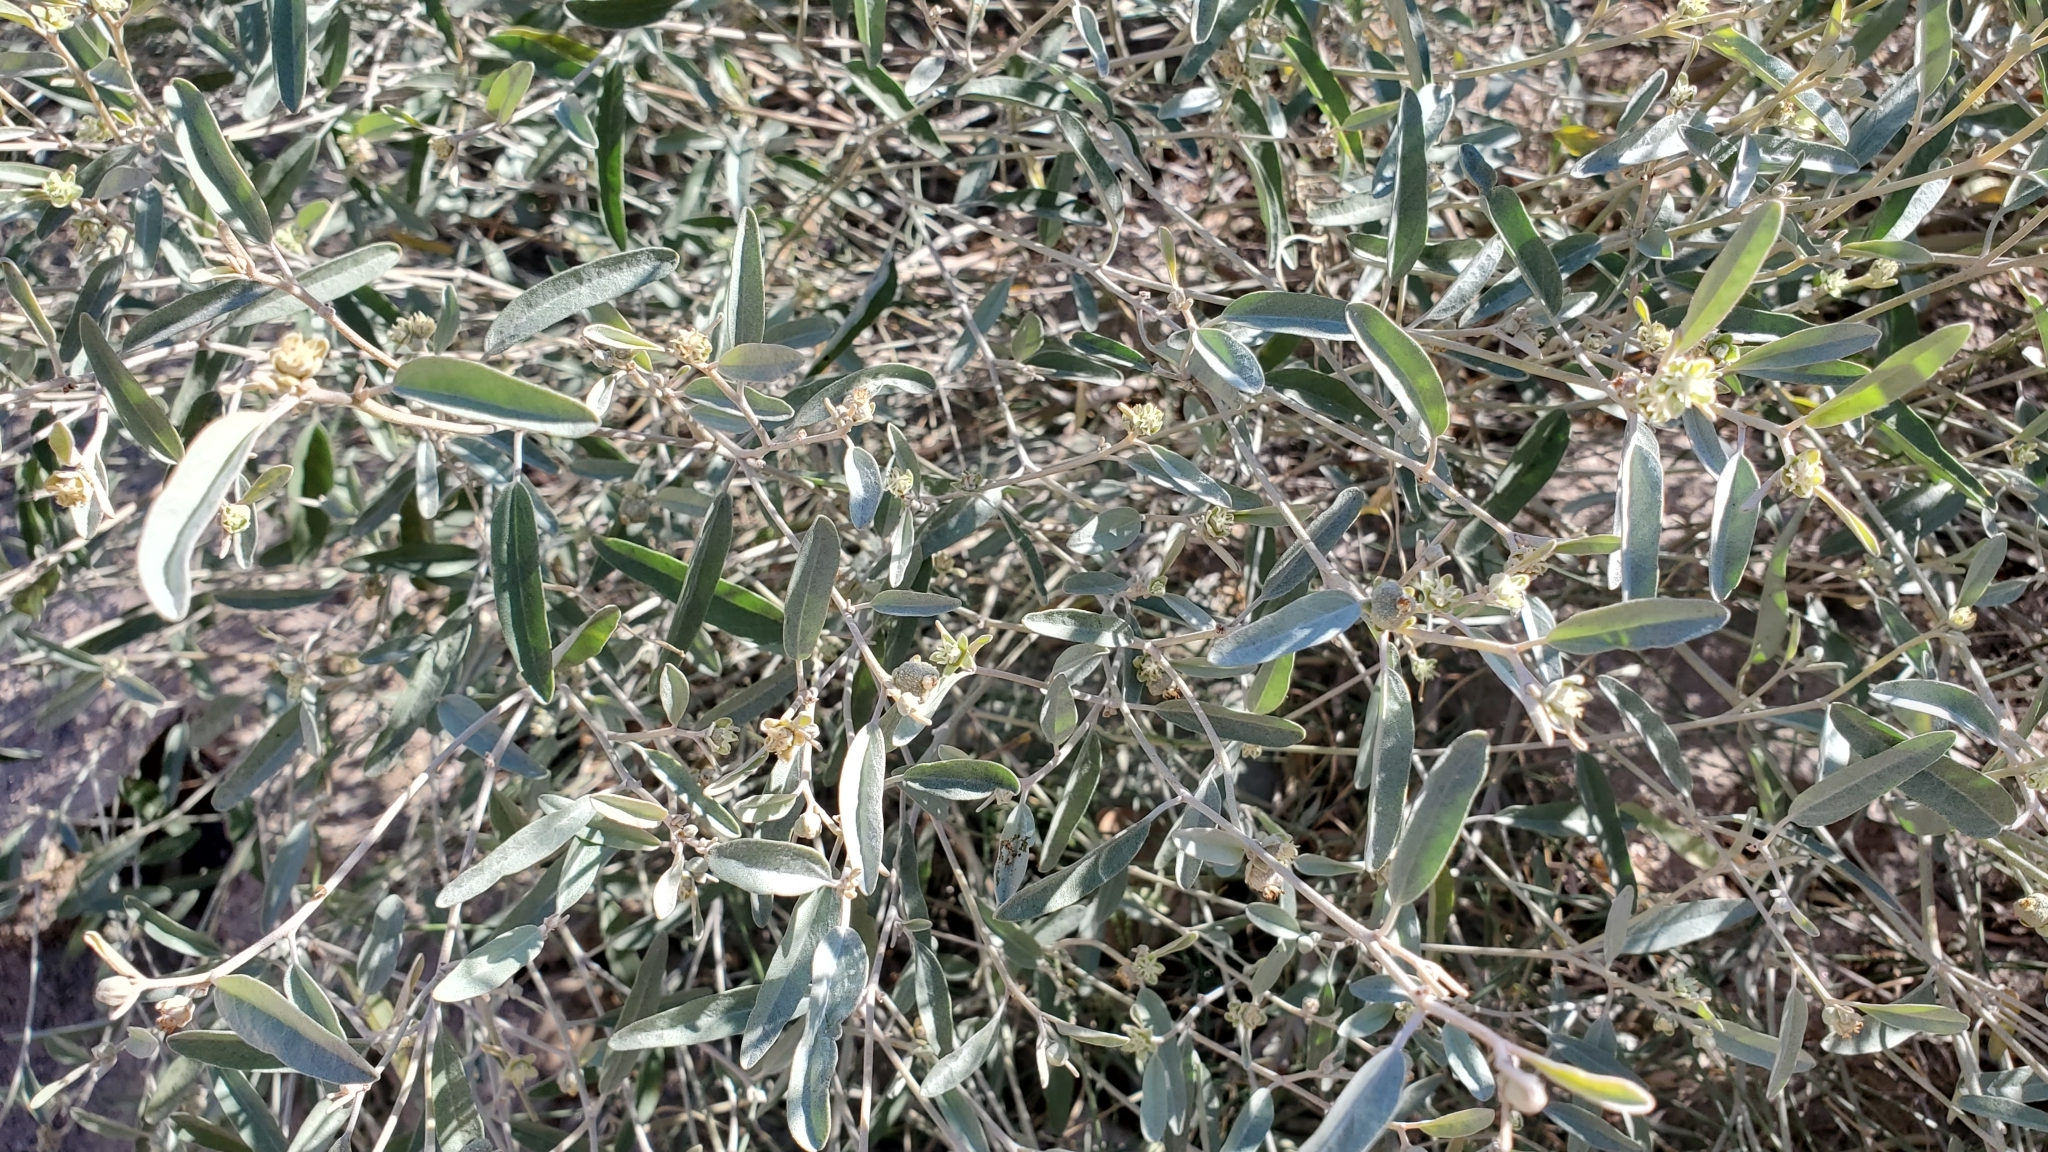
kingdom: Plantae
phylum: Tracheophyta
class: Magnoliopsida
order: Malpighiales
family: Euphorbiaceae
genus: Croton
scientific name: Croton californicus
